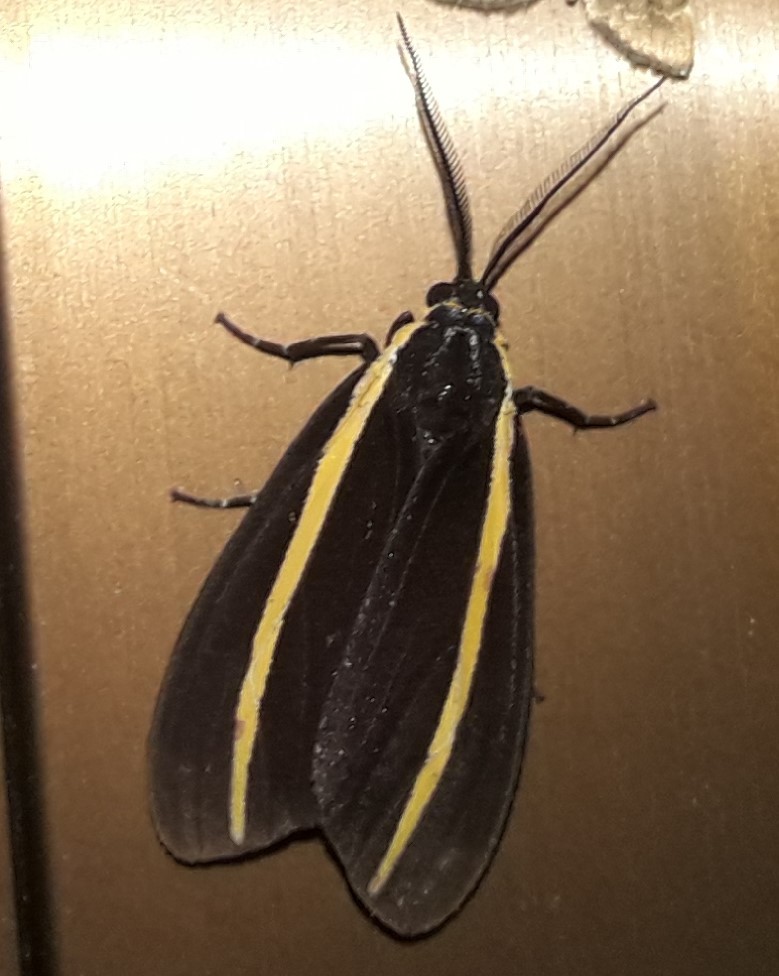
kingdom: Animalia
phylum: Arthropoda
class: Insecta
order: Lepidoptera
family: Erebidae
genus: Josiomorpha
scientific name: Josiomorpha penetrata
